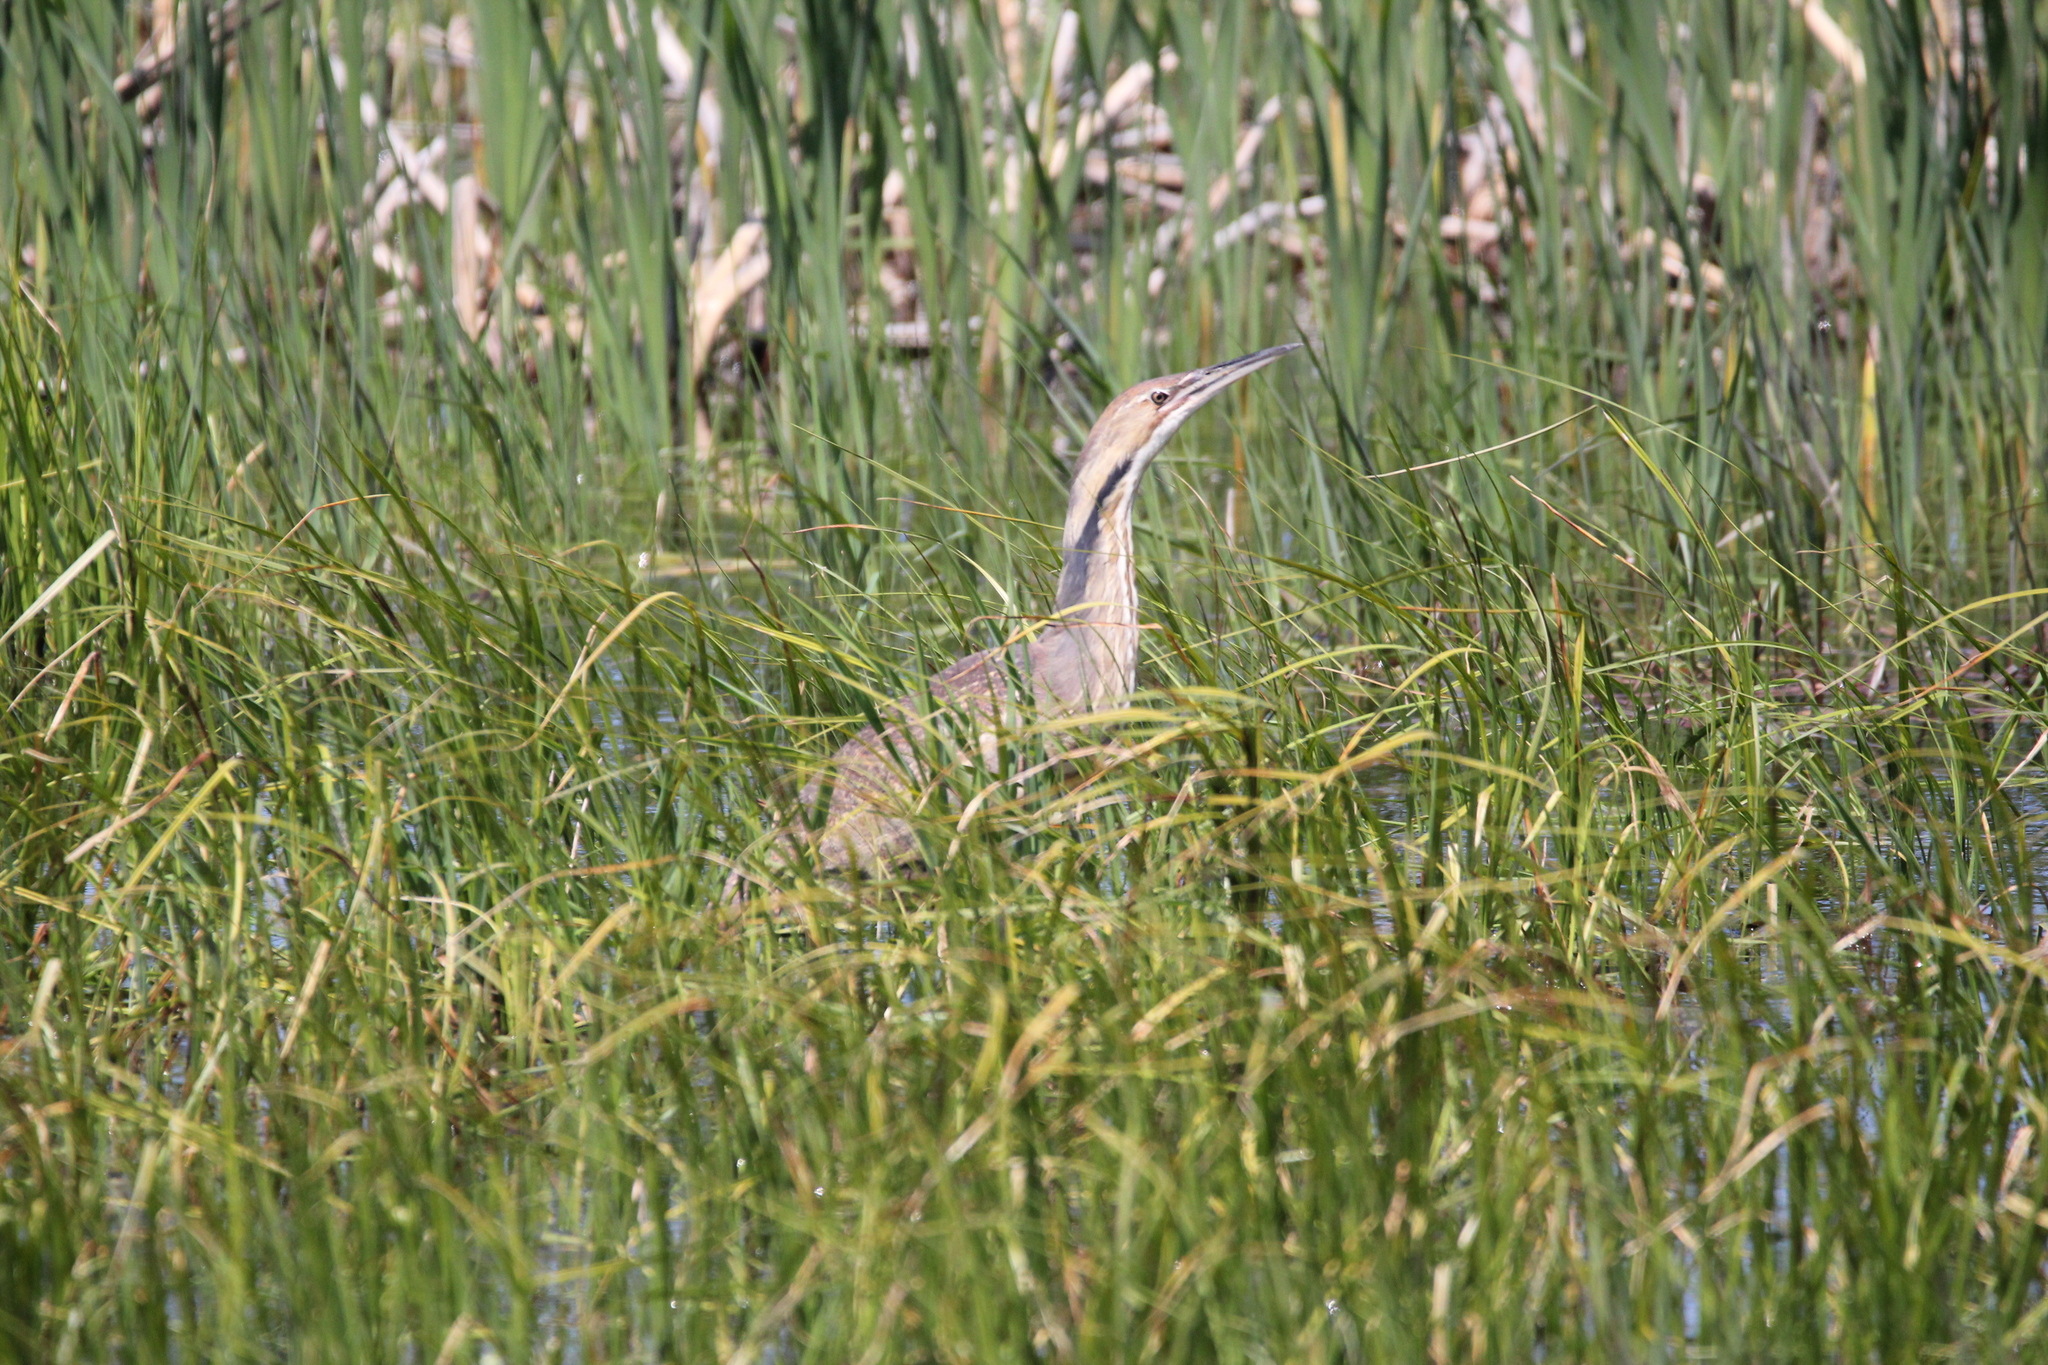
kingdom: Animalia
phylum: Chordata
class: Aves
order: Pelecaniformes
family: Ardeidae
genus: Botaurus
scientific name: Botaurus lentiginosus
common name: American bittern
